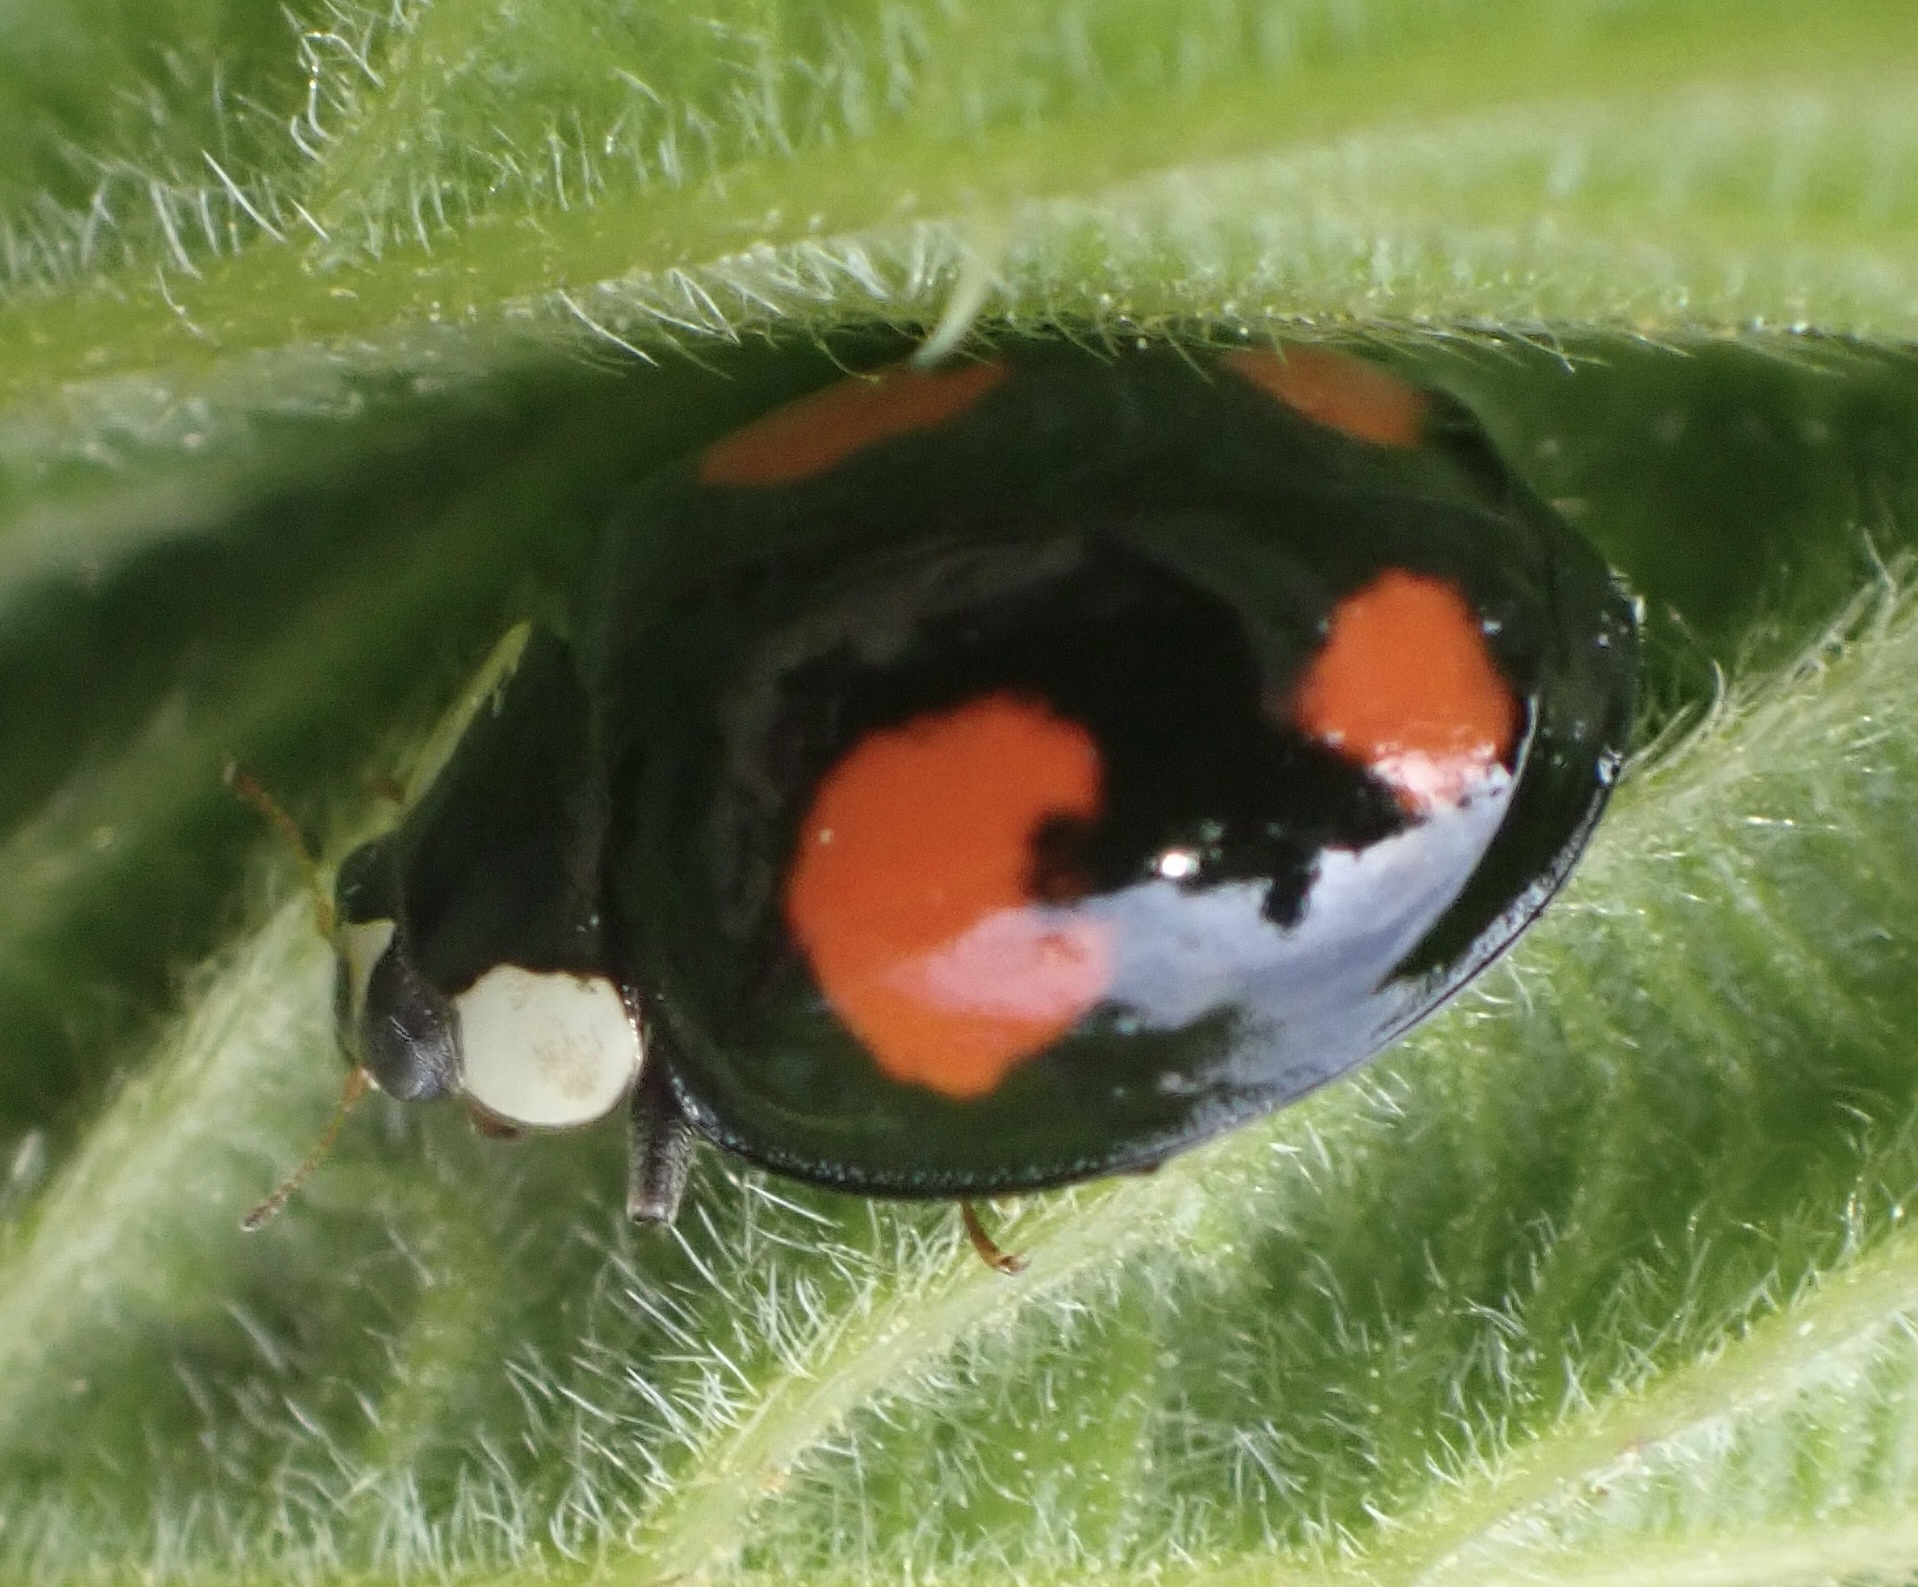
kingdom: Animalia
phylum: Arthropoda
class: Insecta
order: Coleoptera
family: Coccinellidae
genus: Harmonia
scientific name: Harmonia axyridis
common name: Harlequin ladybird
